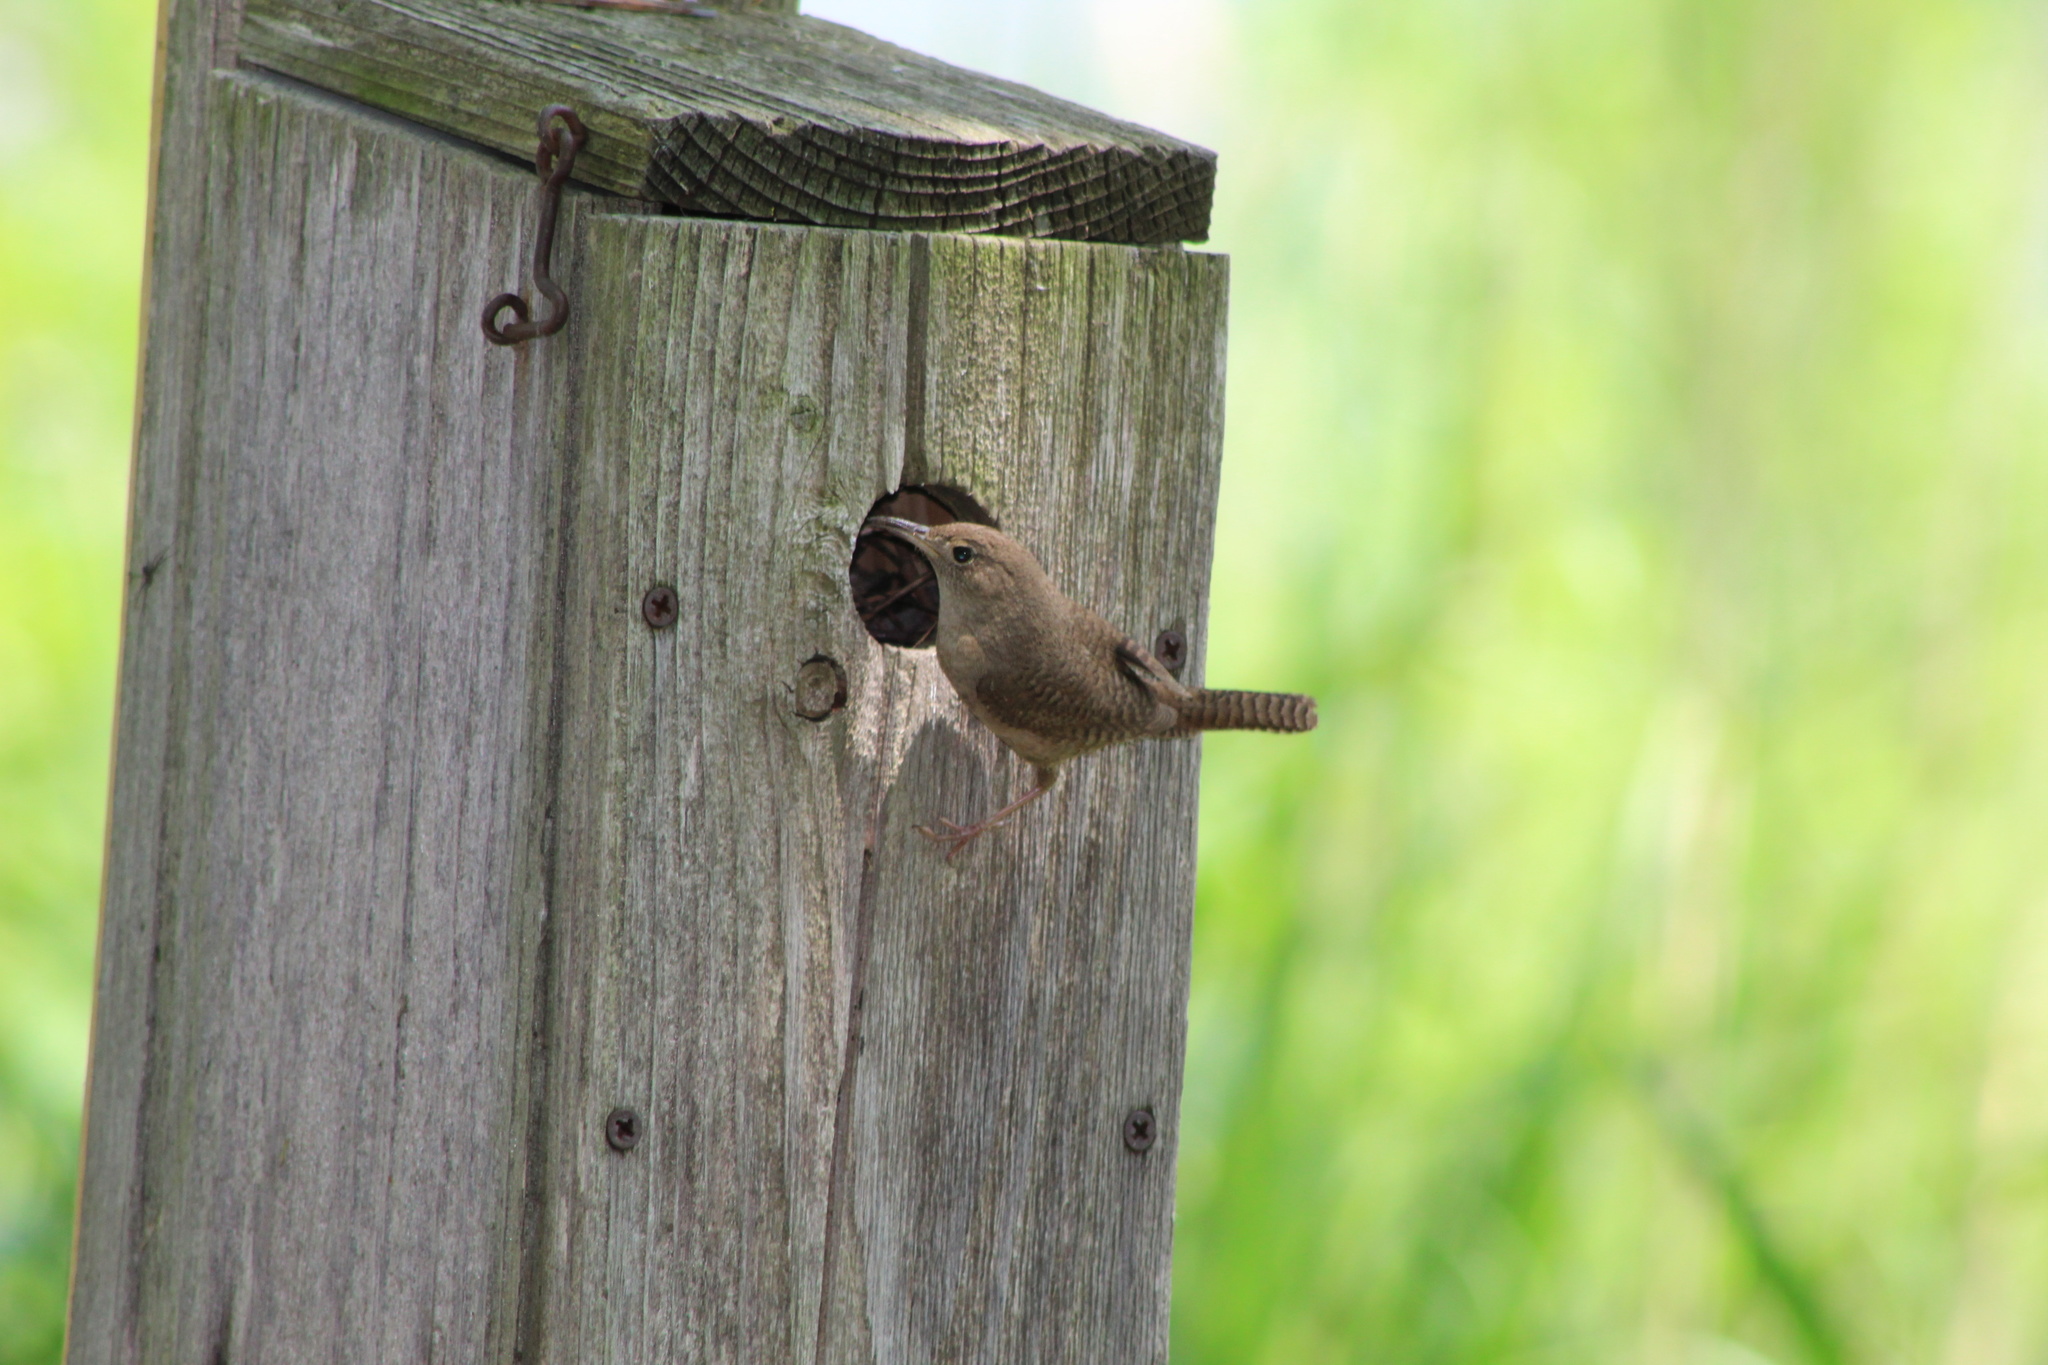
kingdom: Animalia
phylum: Chordata
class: Aves
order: Passeriformes
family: Troglodytidae
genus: Troglodytes
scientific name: Troglodytes aedon
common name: House wren
